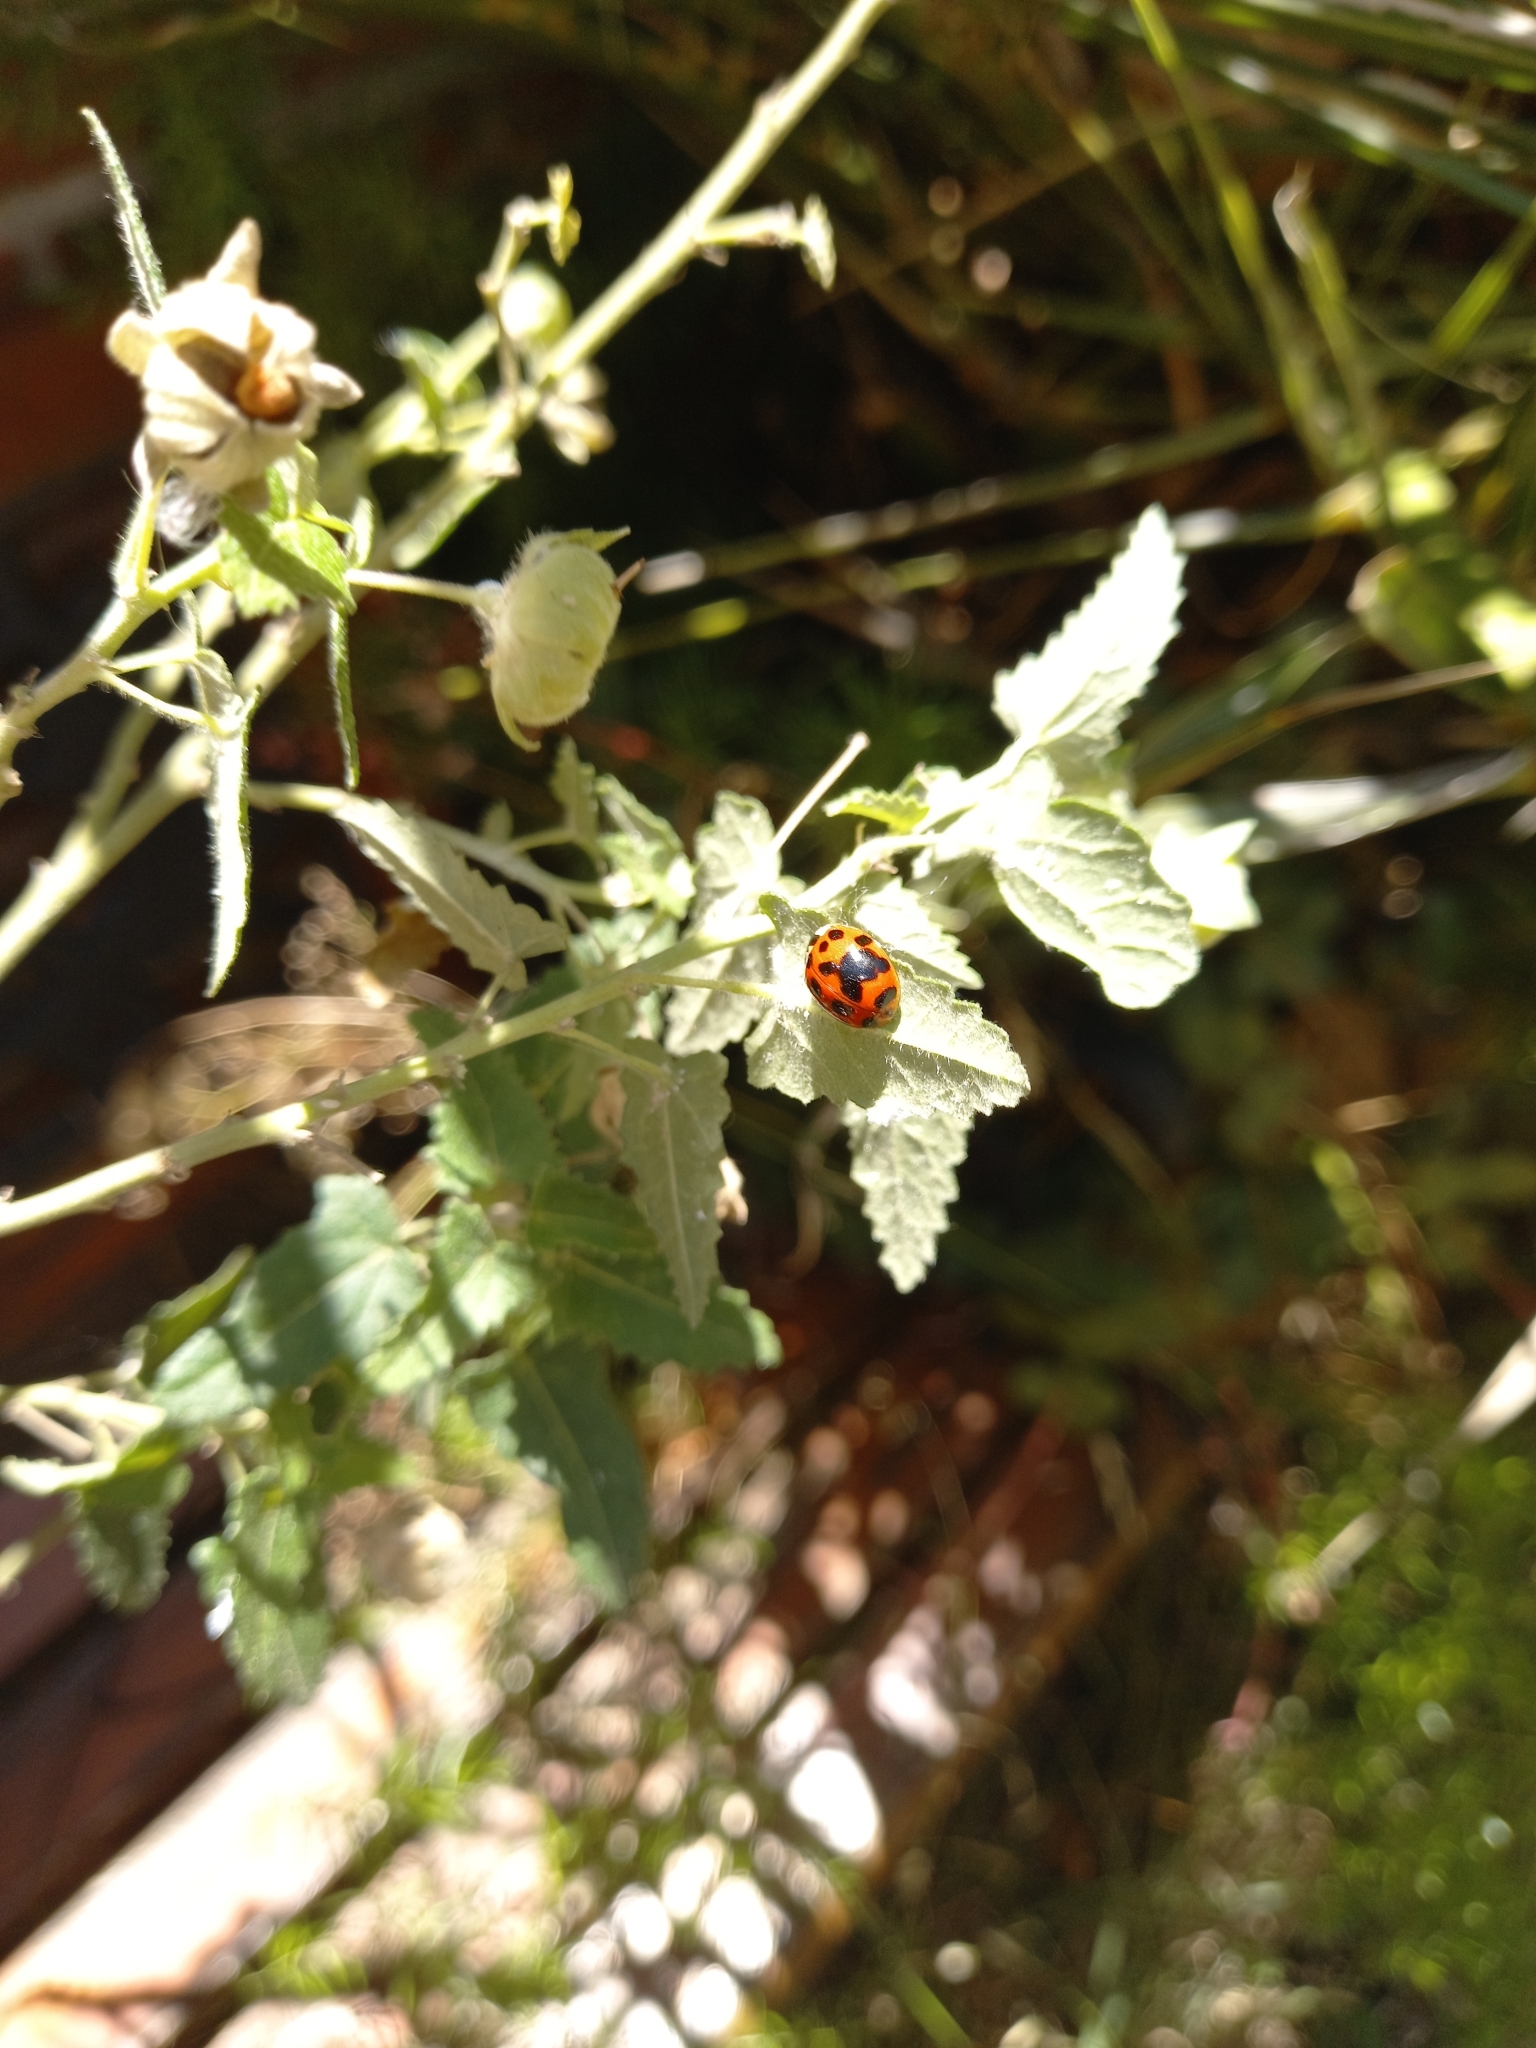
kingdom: Animalia
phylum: Arthropoda
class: Insecta
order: Coleoptera
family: Coccinellidae
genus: Harmonia
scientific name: Harmonia axyridis
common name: Harlequin ladybird
